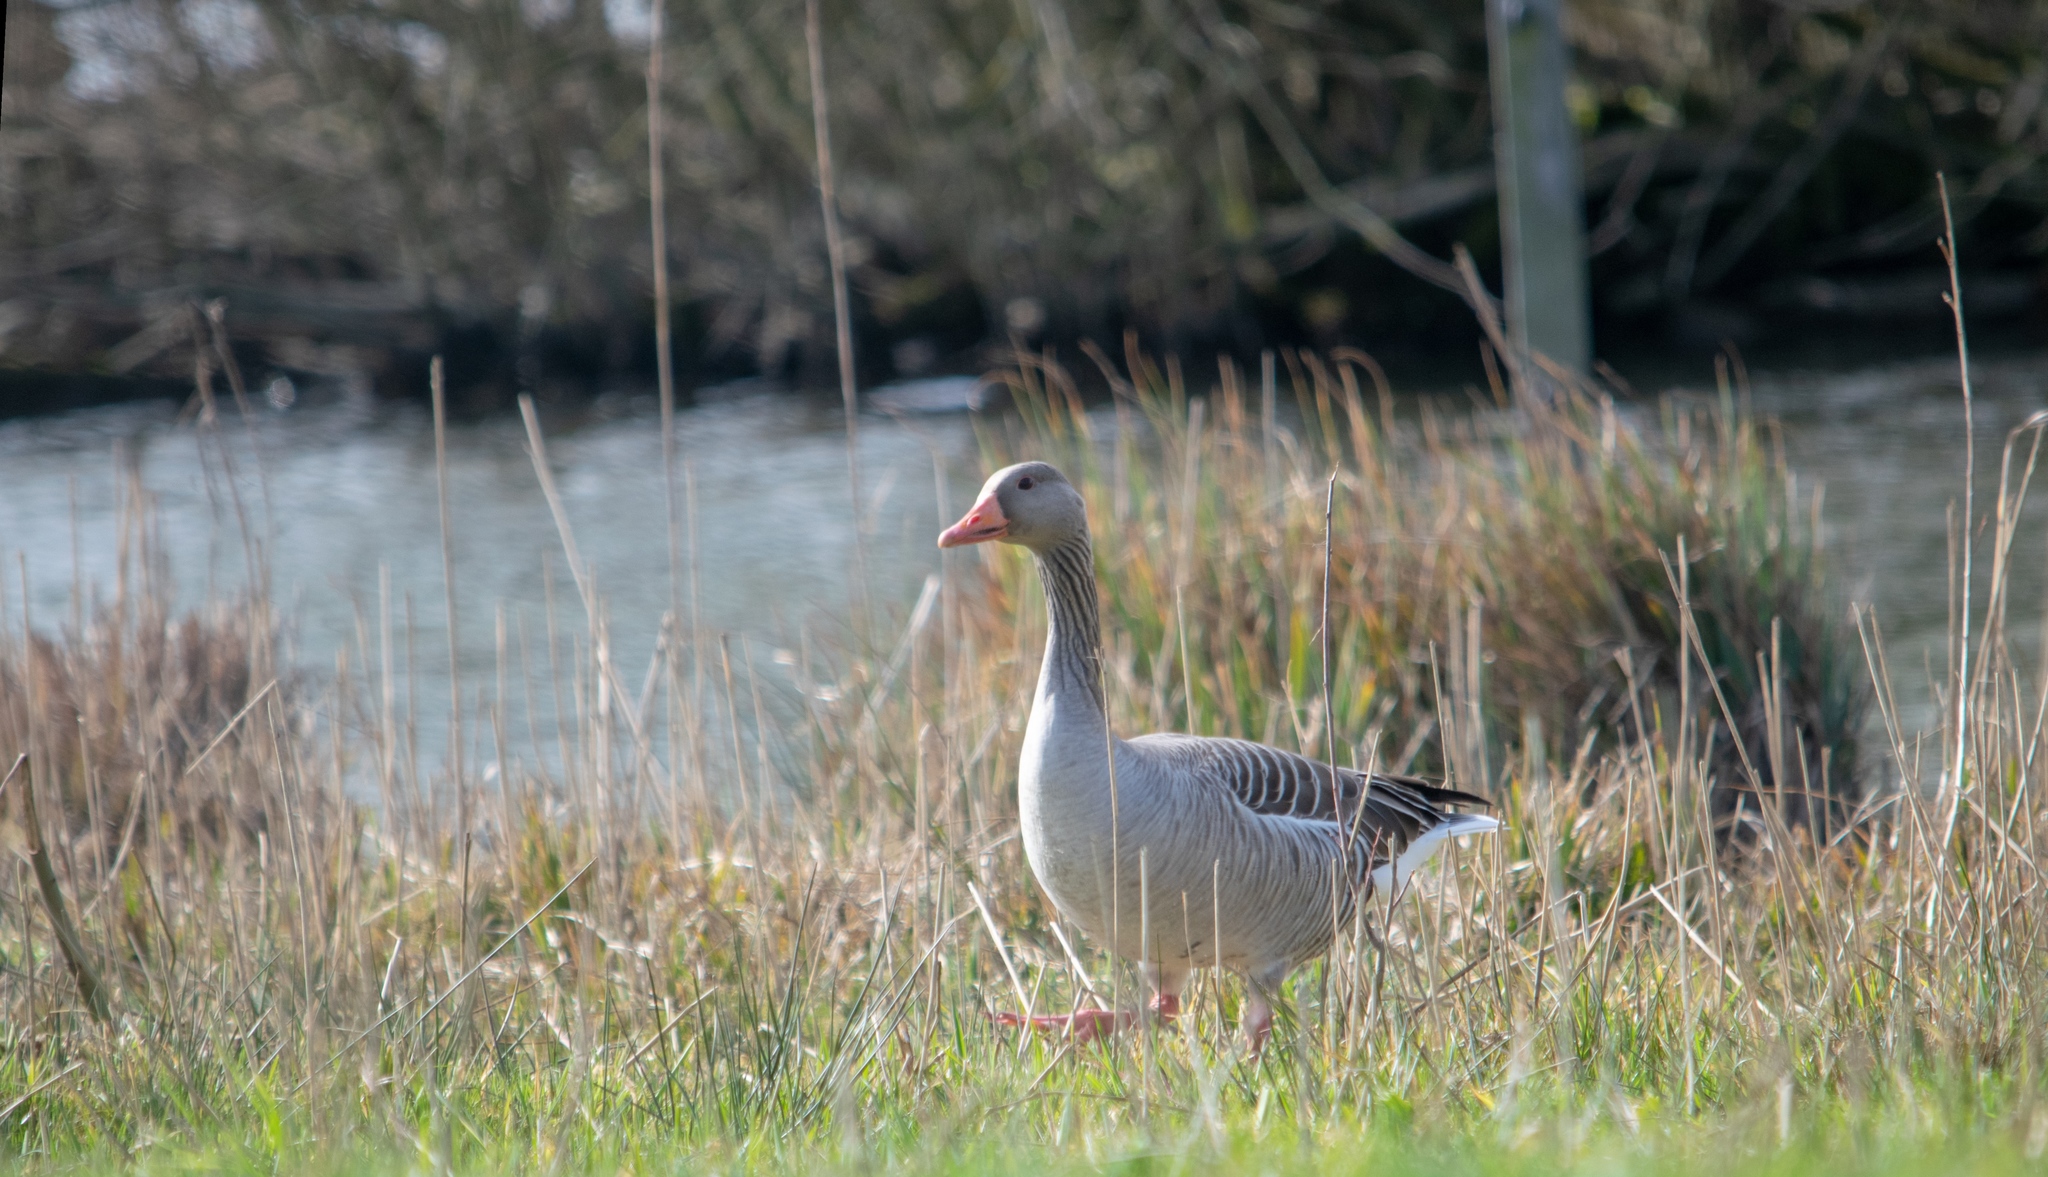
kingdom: Animalia
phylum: Chordata
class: Aves
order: Anseriformes
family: Anatidae
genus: Anser
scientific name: Anser anser
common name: Greylag goose
